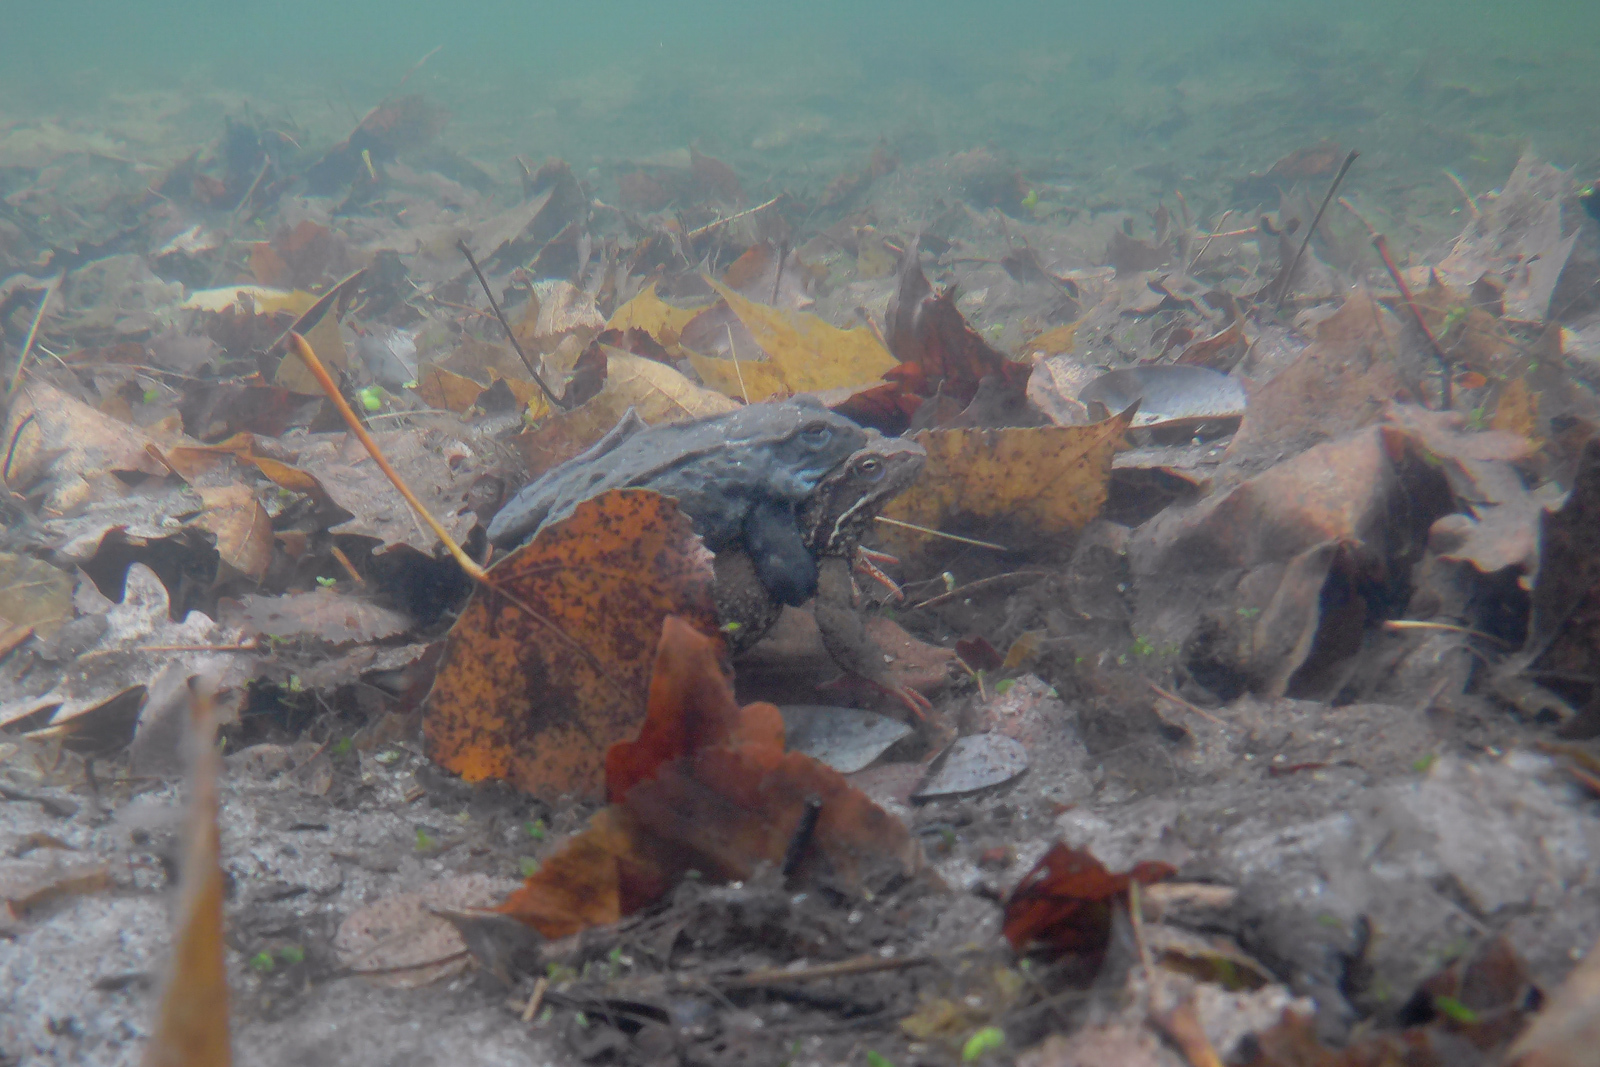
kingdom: Animalia
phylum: Chordata
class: Amphibia
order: Anura
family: Ranidae
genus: Rana
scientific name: Rana temporaria
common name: Common frog
